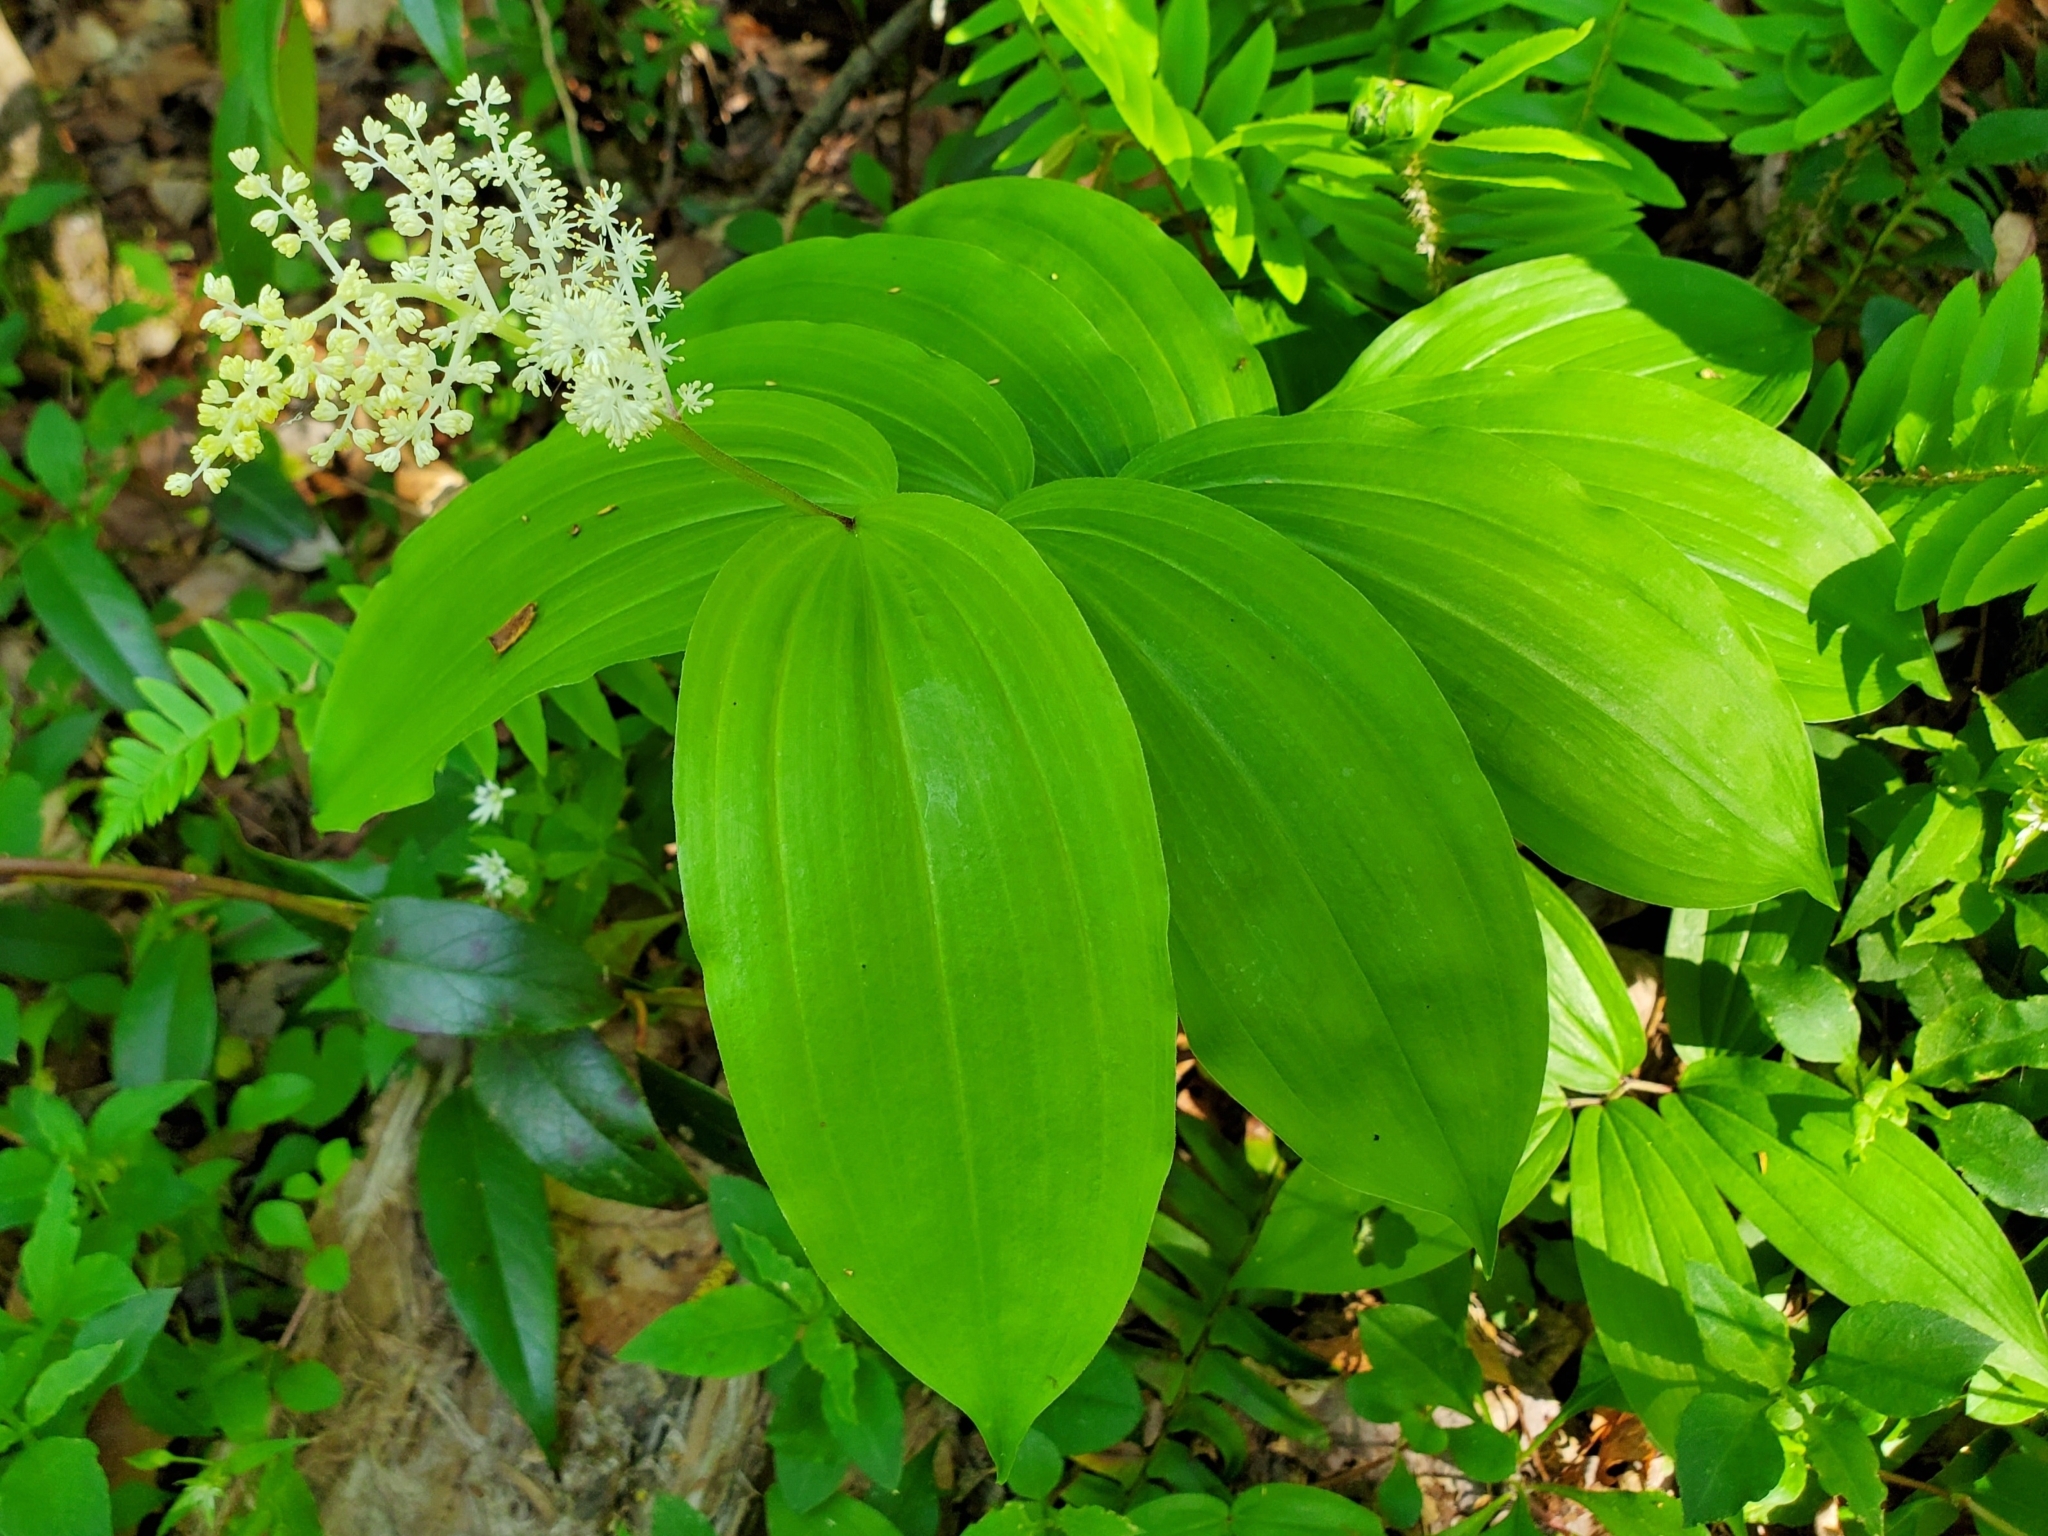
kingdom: Plantae
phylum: Tracheophyta
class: Liliopsida
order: Asparagales
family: Asparagaceae
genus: Maianthemum
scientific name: Maianthemum racemosum
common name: False spikenard
